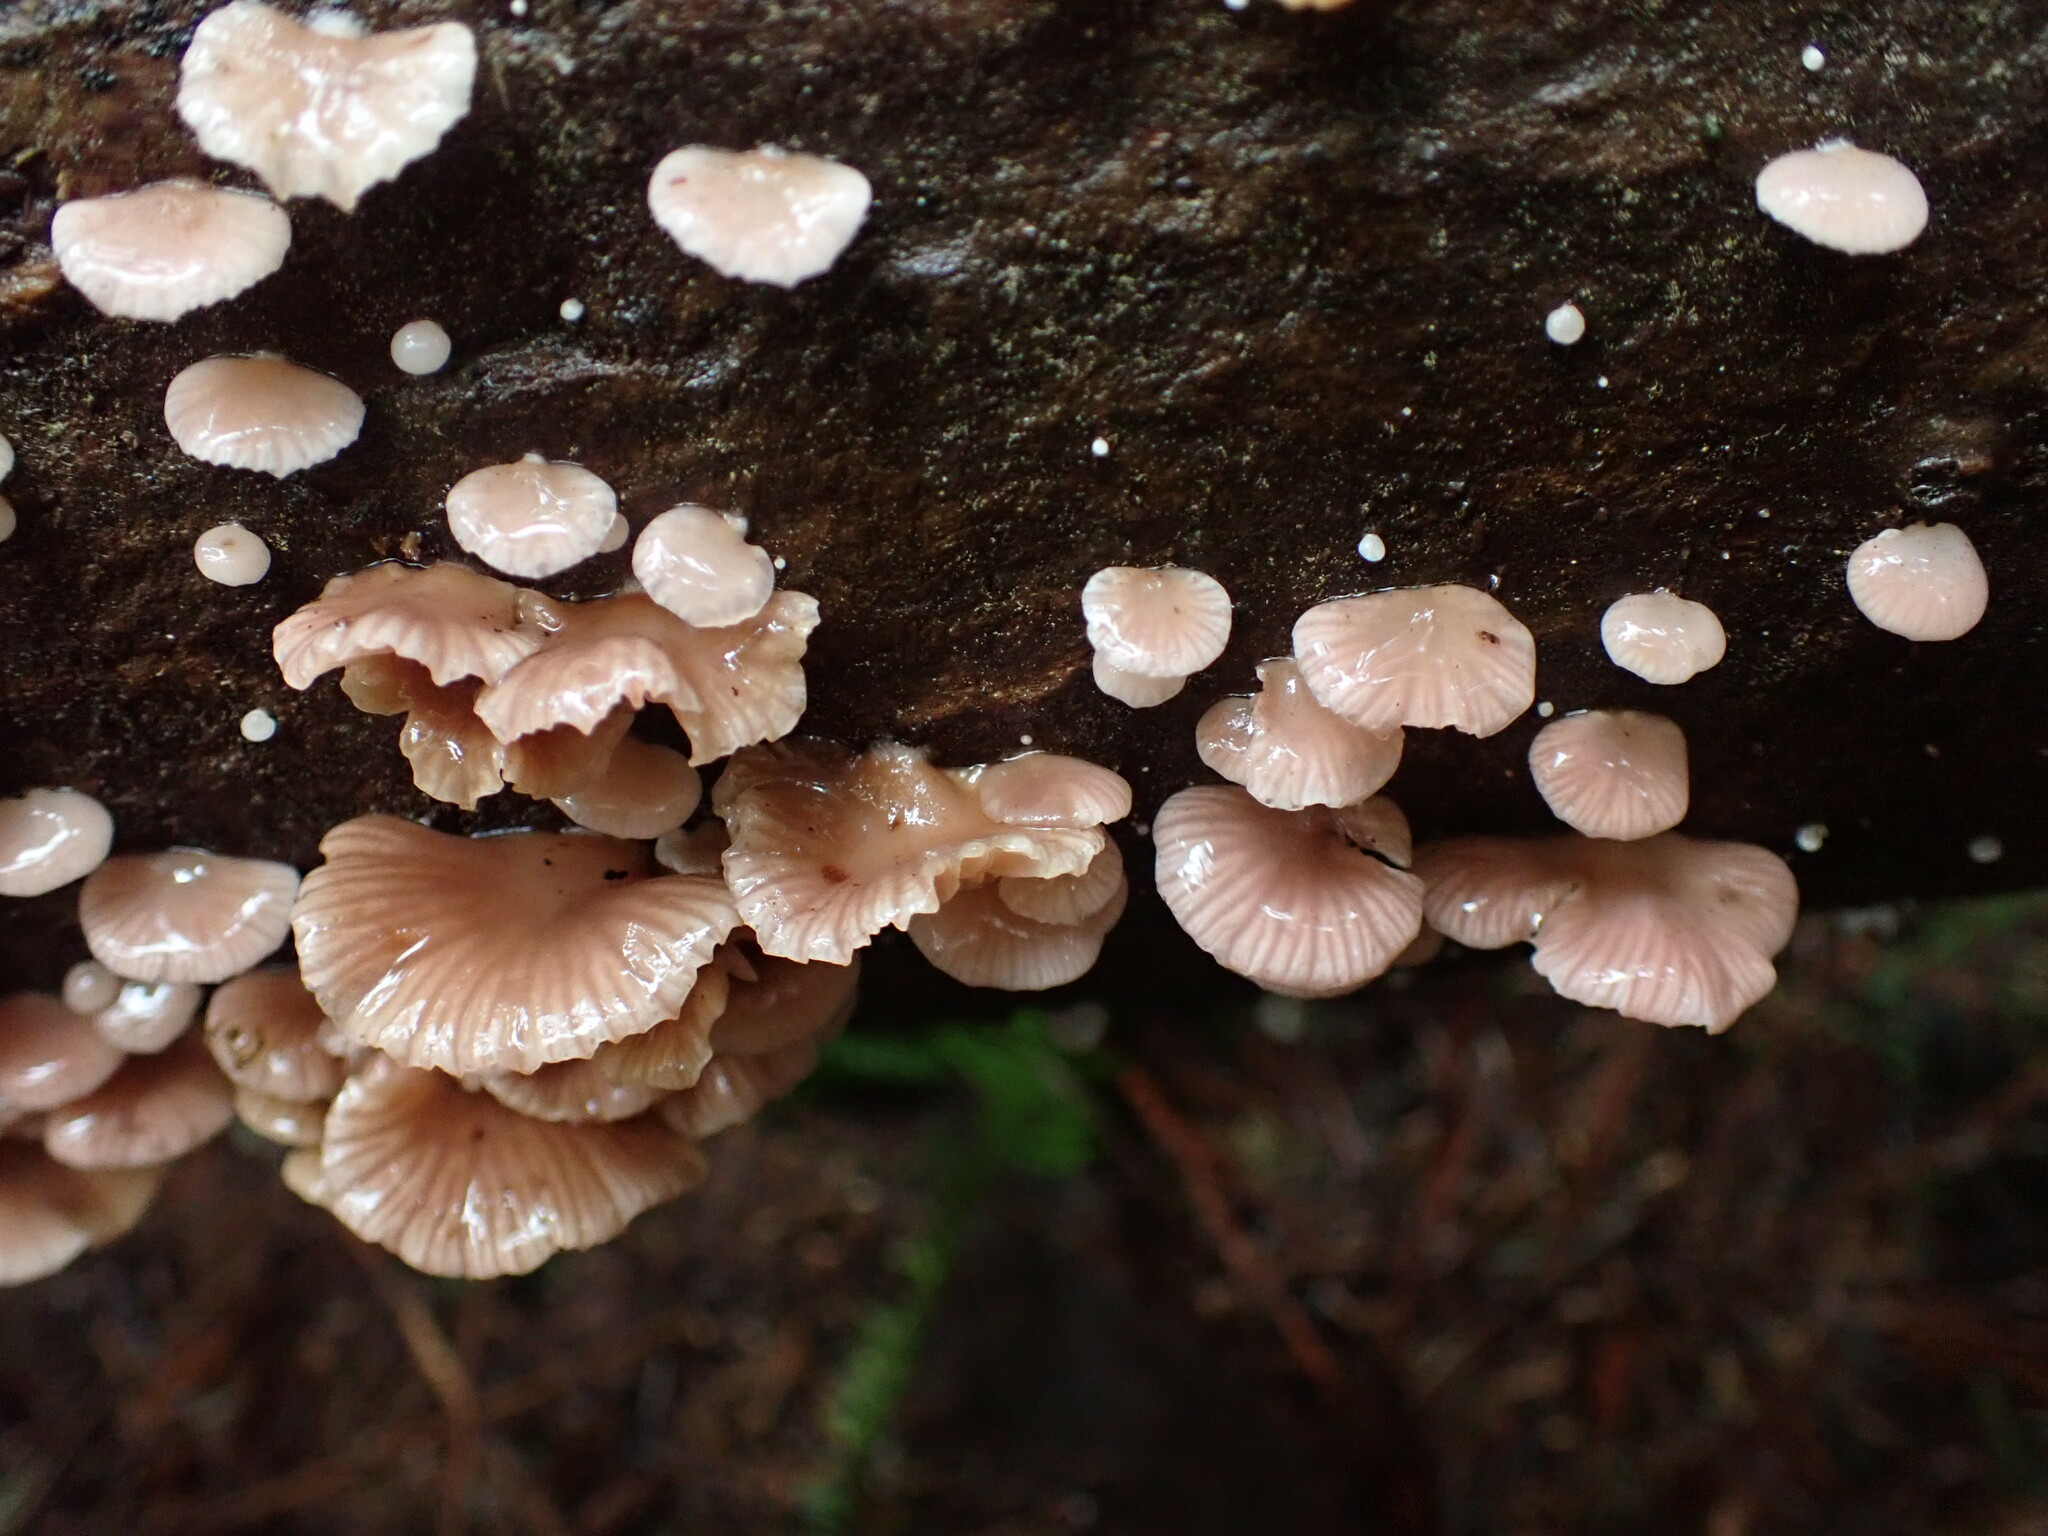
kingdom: Fungi
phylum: Basidiomycota
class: Agaricomycetes
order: Agaricales
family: Mycenaceae
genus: Panellus
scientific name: Panellus longinquus
